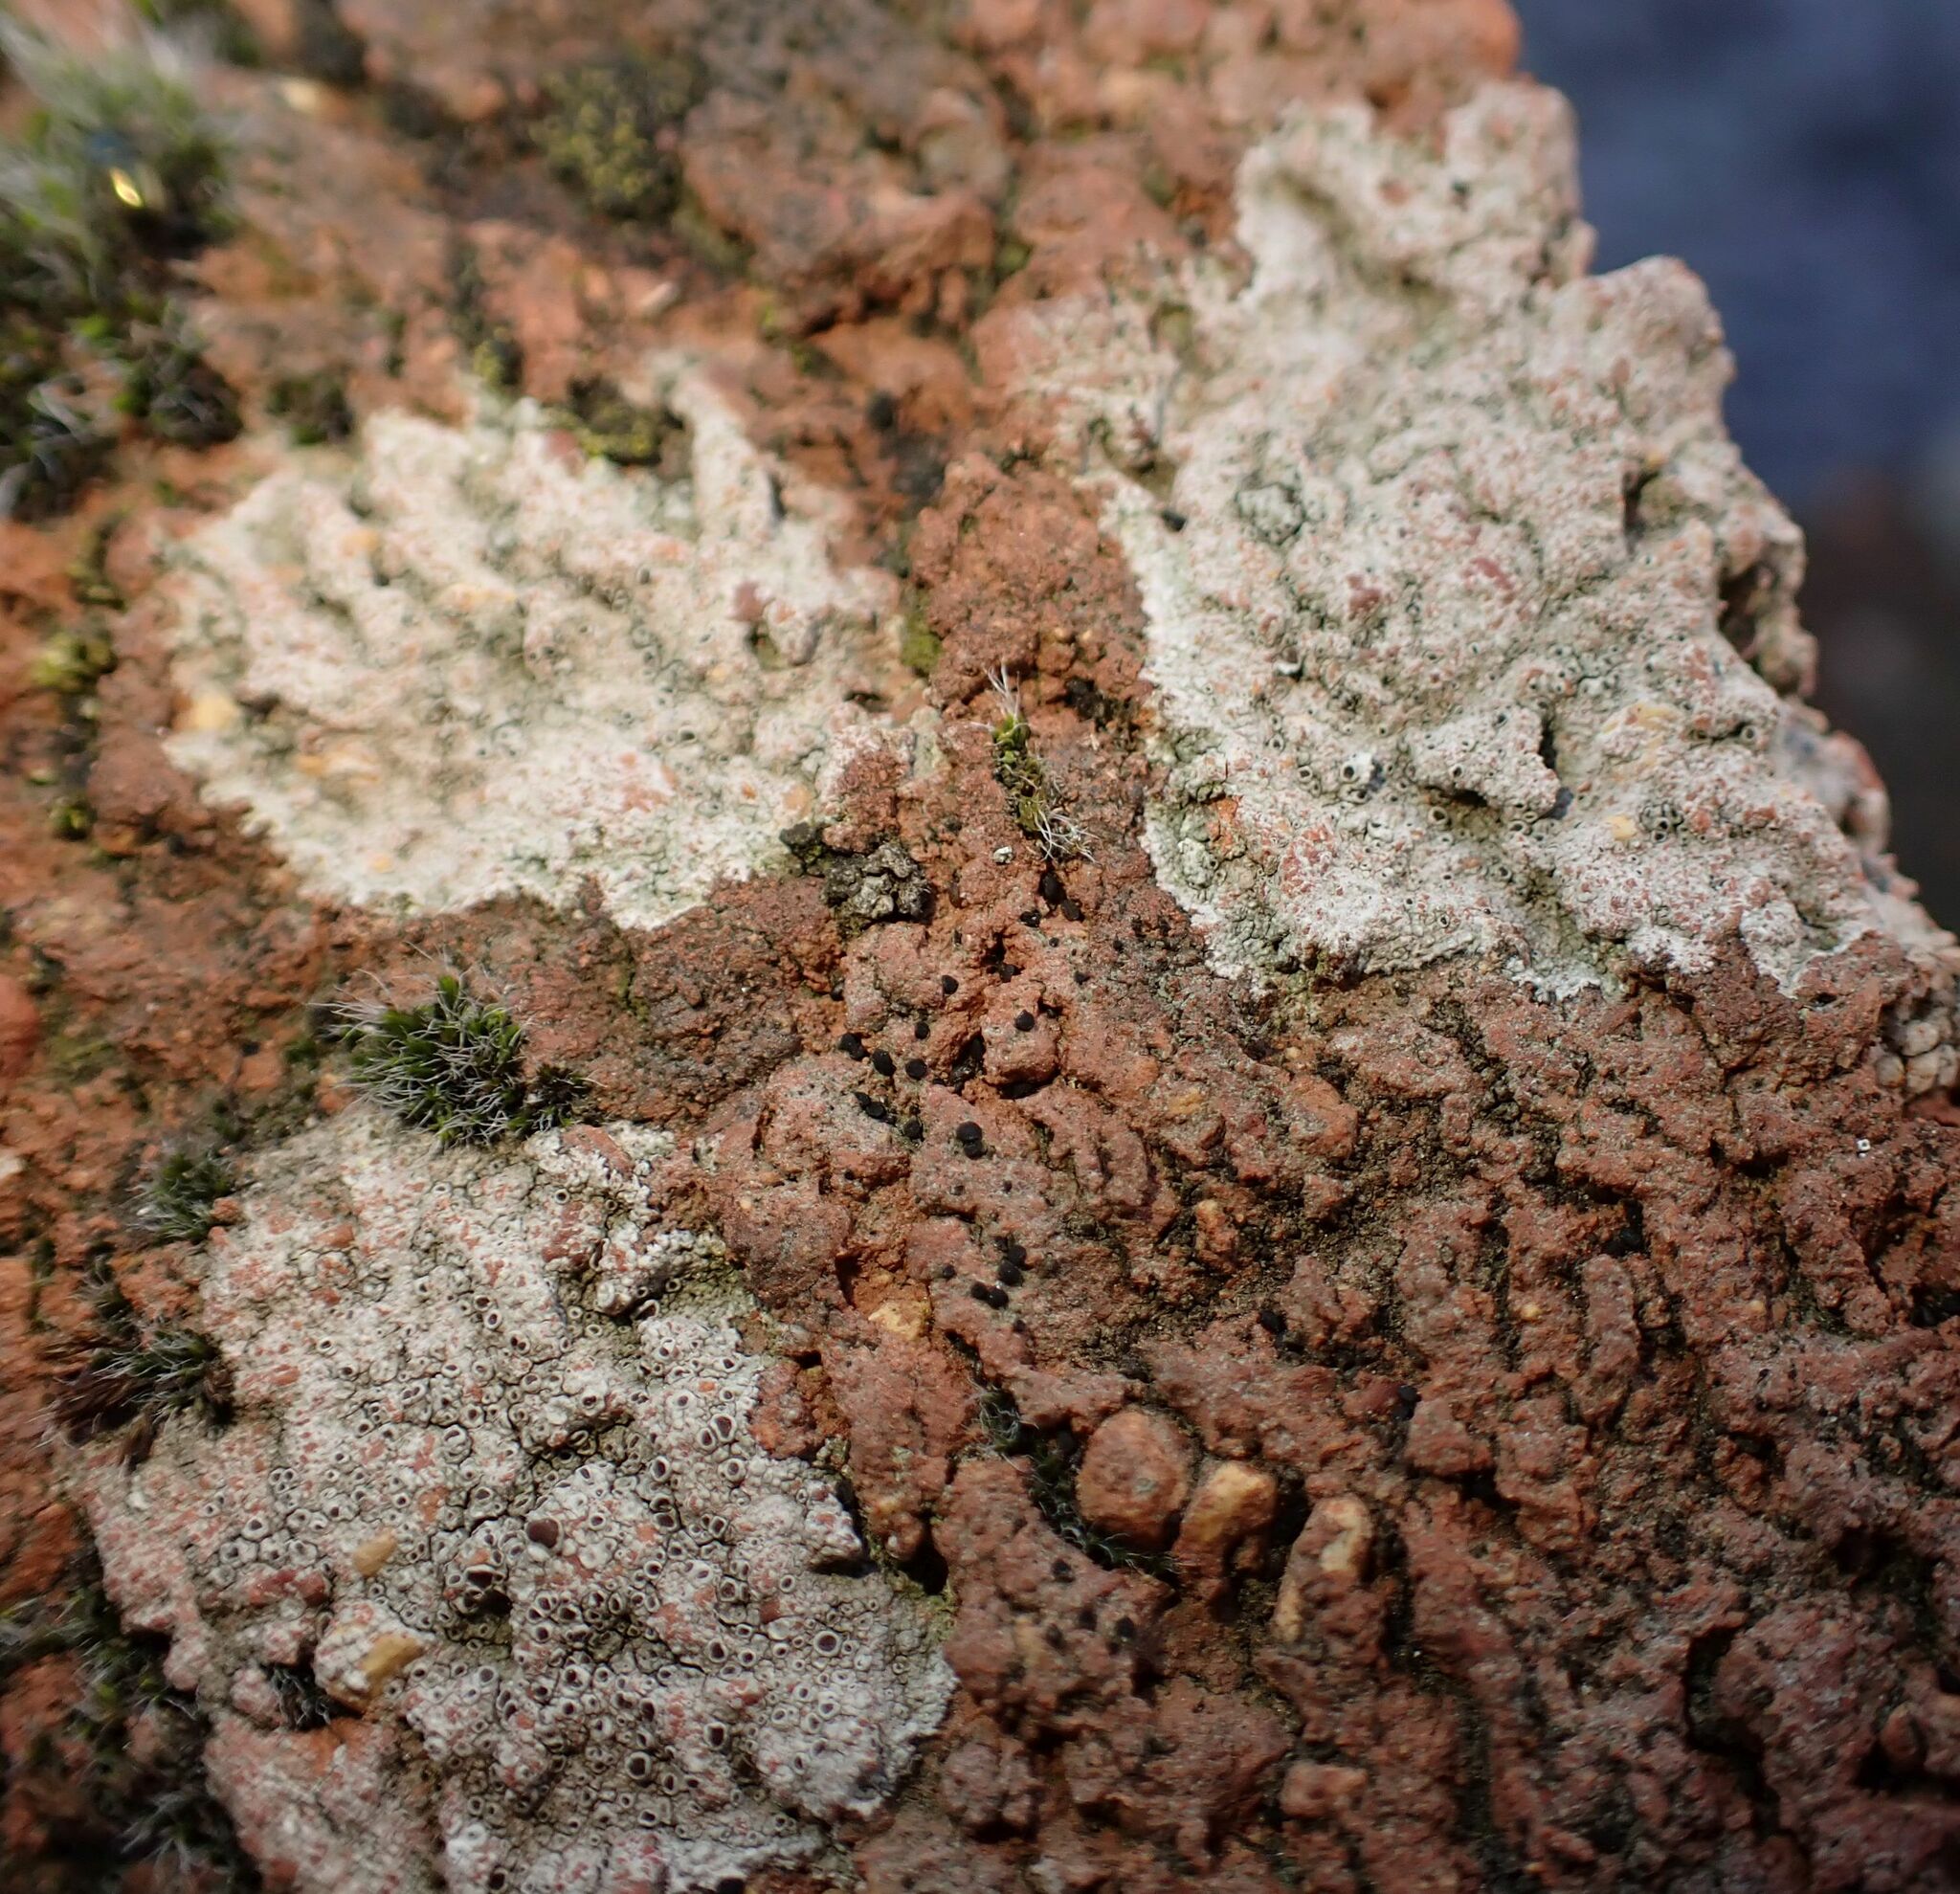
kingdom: Fungi
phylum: Ascomycota
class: Lecanoromycetes
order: Lecanorales
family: Lecanoraceae
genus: Lecanora
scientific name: Lecanora campestris
